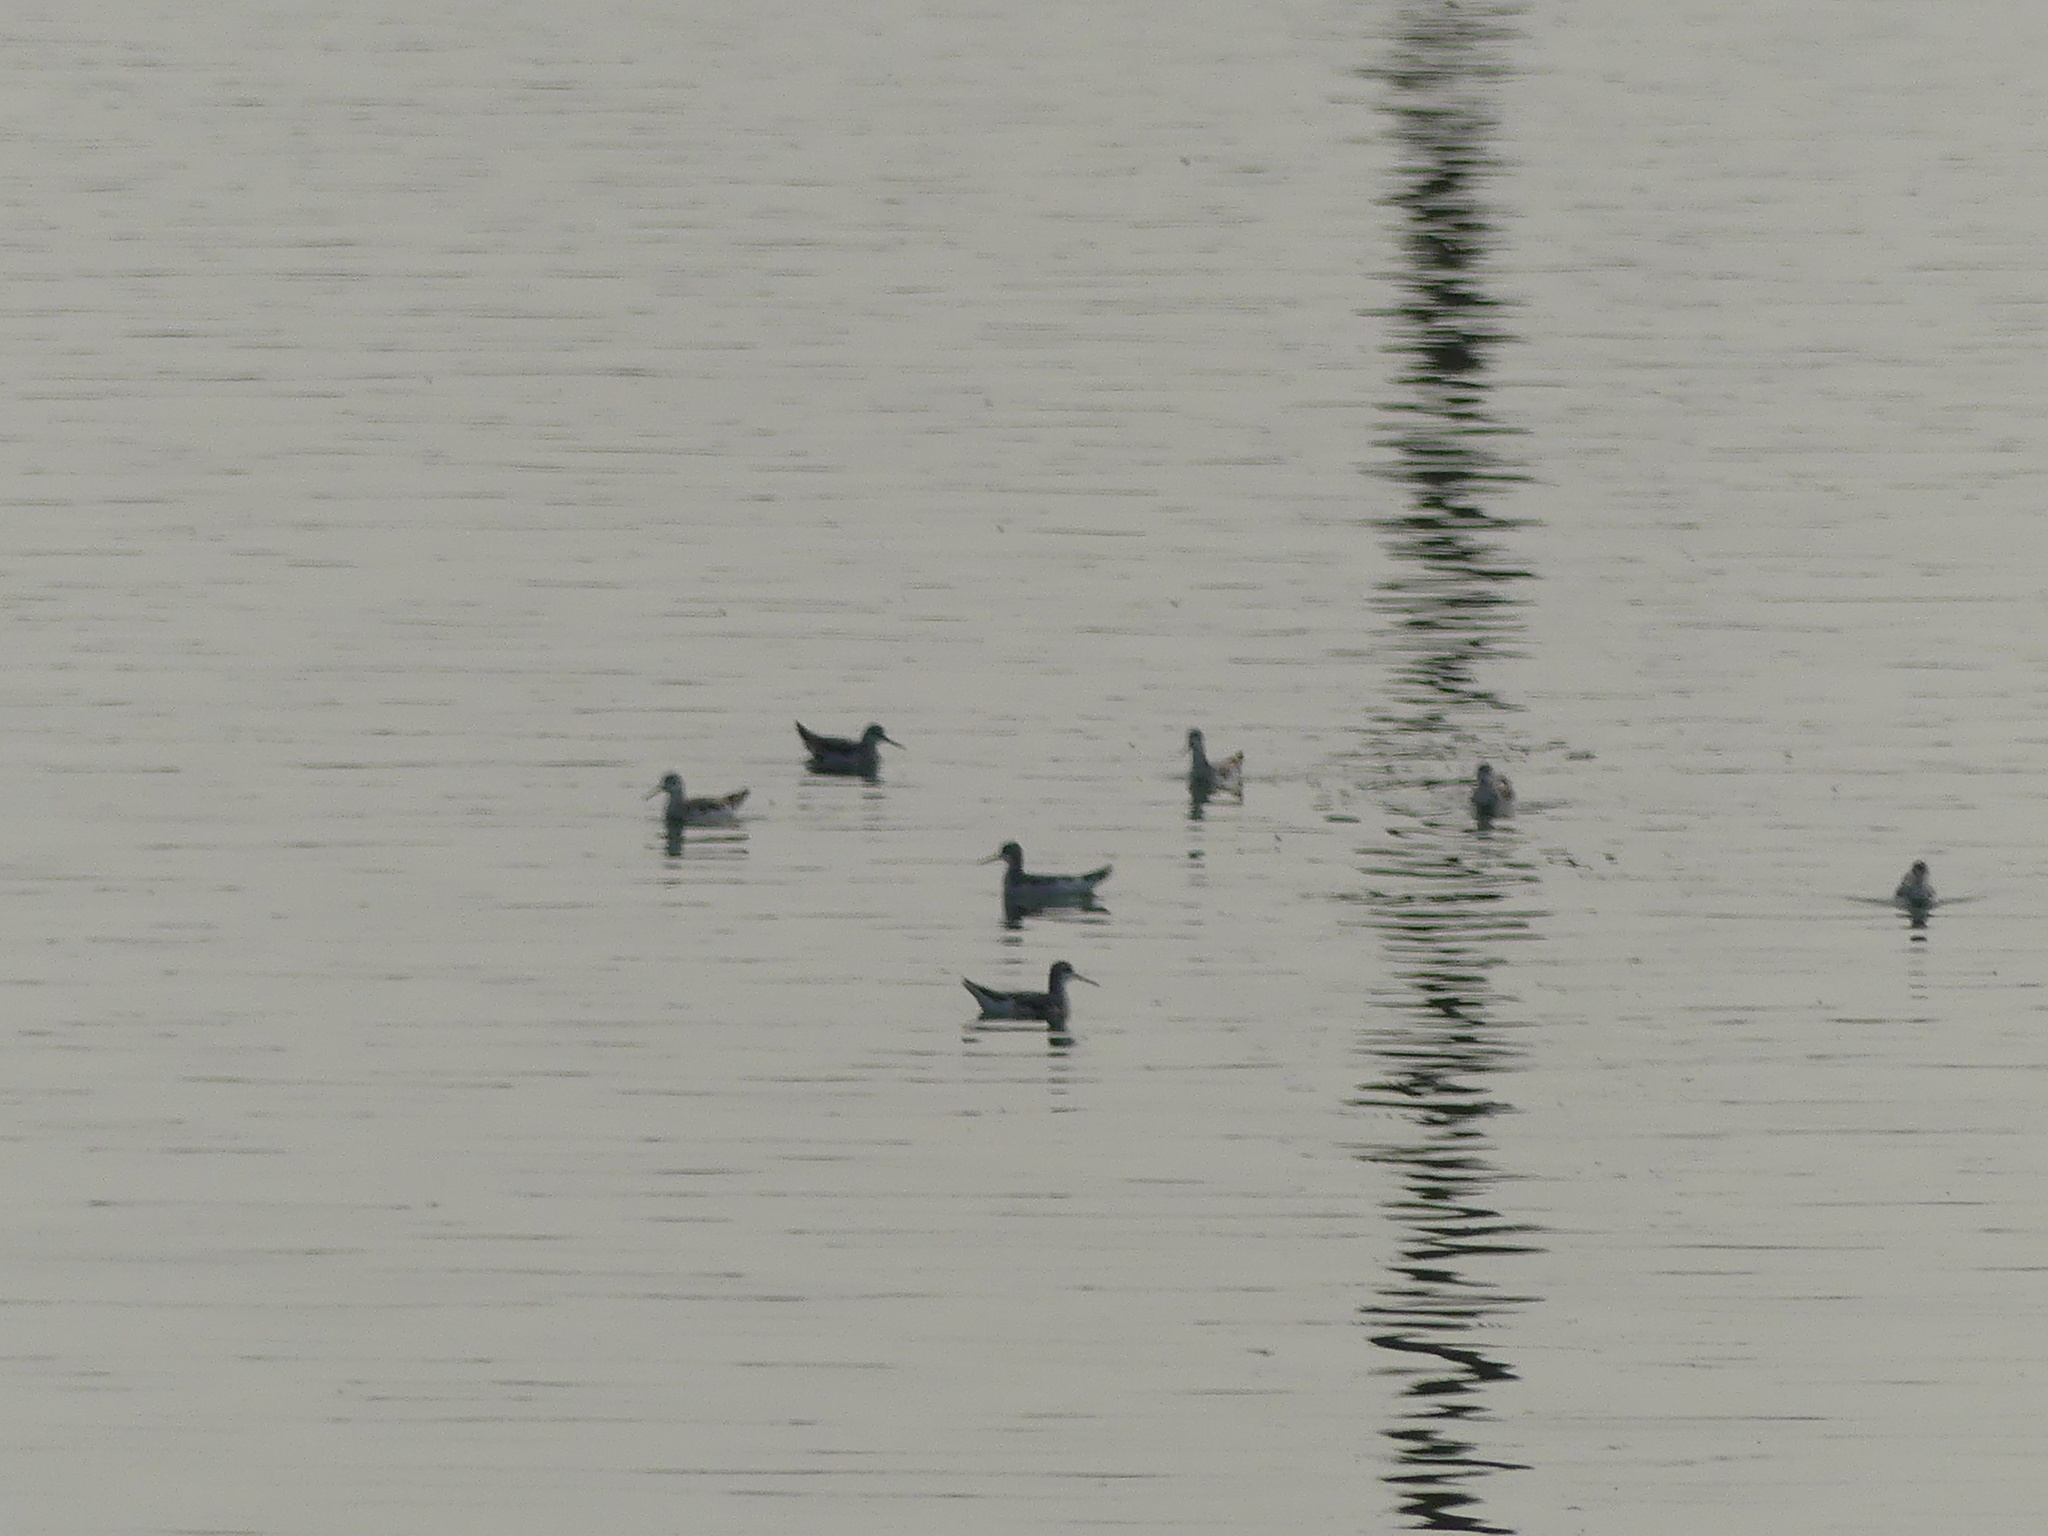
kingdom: Animalia
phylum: Chordata
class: Aves
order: Charadriiformes
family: Scolopacidae
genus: Phalaropus
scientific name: Phalaropus tricolor
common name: Wilson's phalarope
